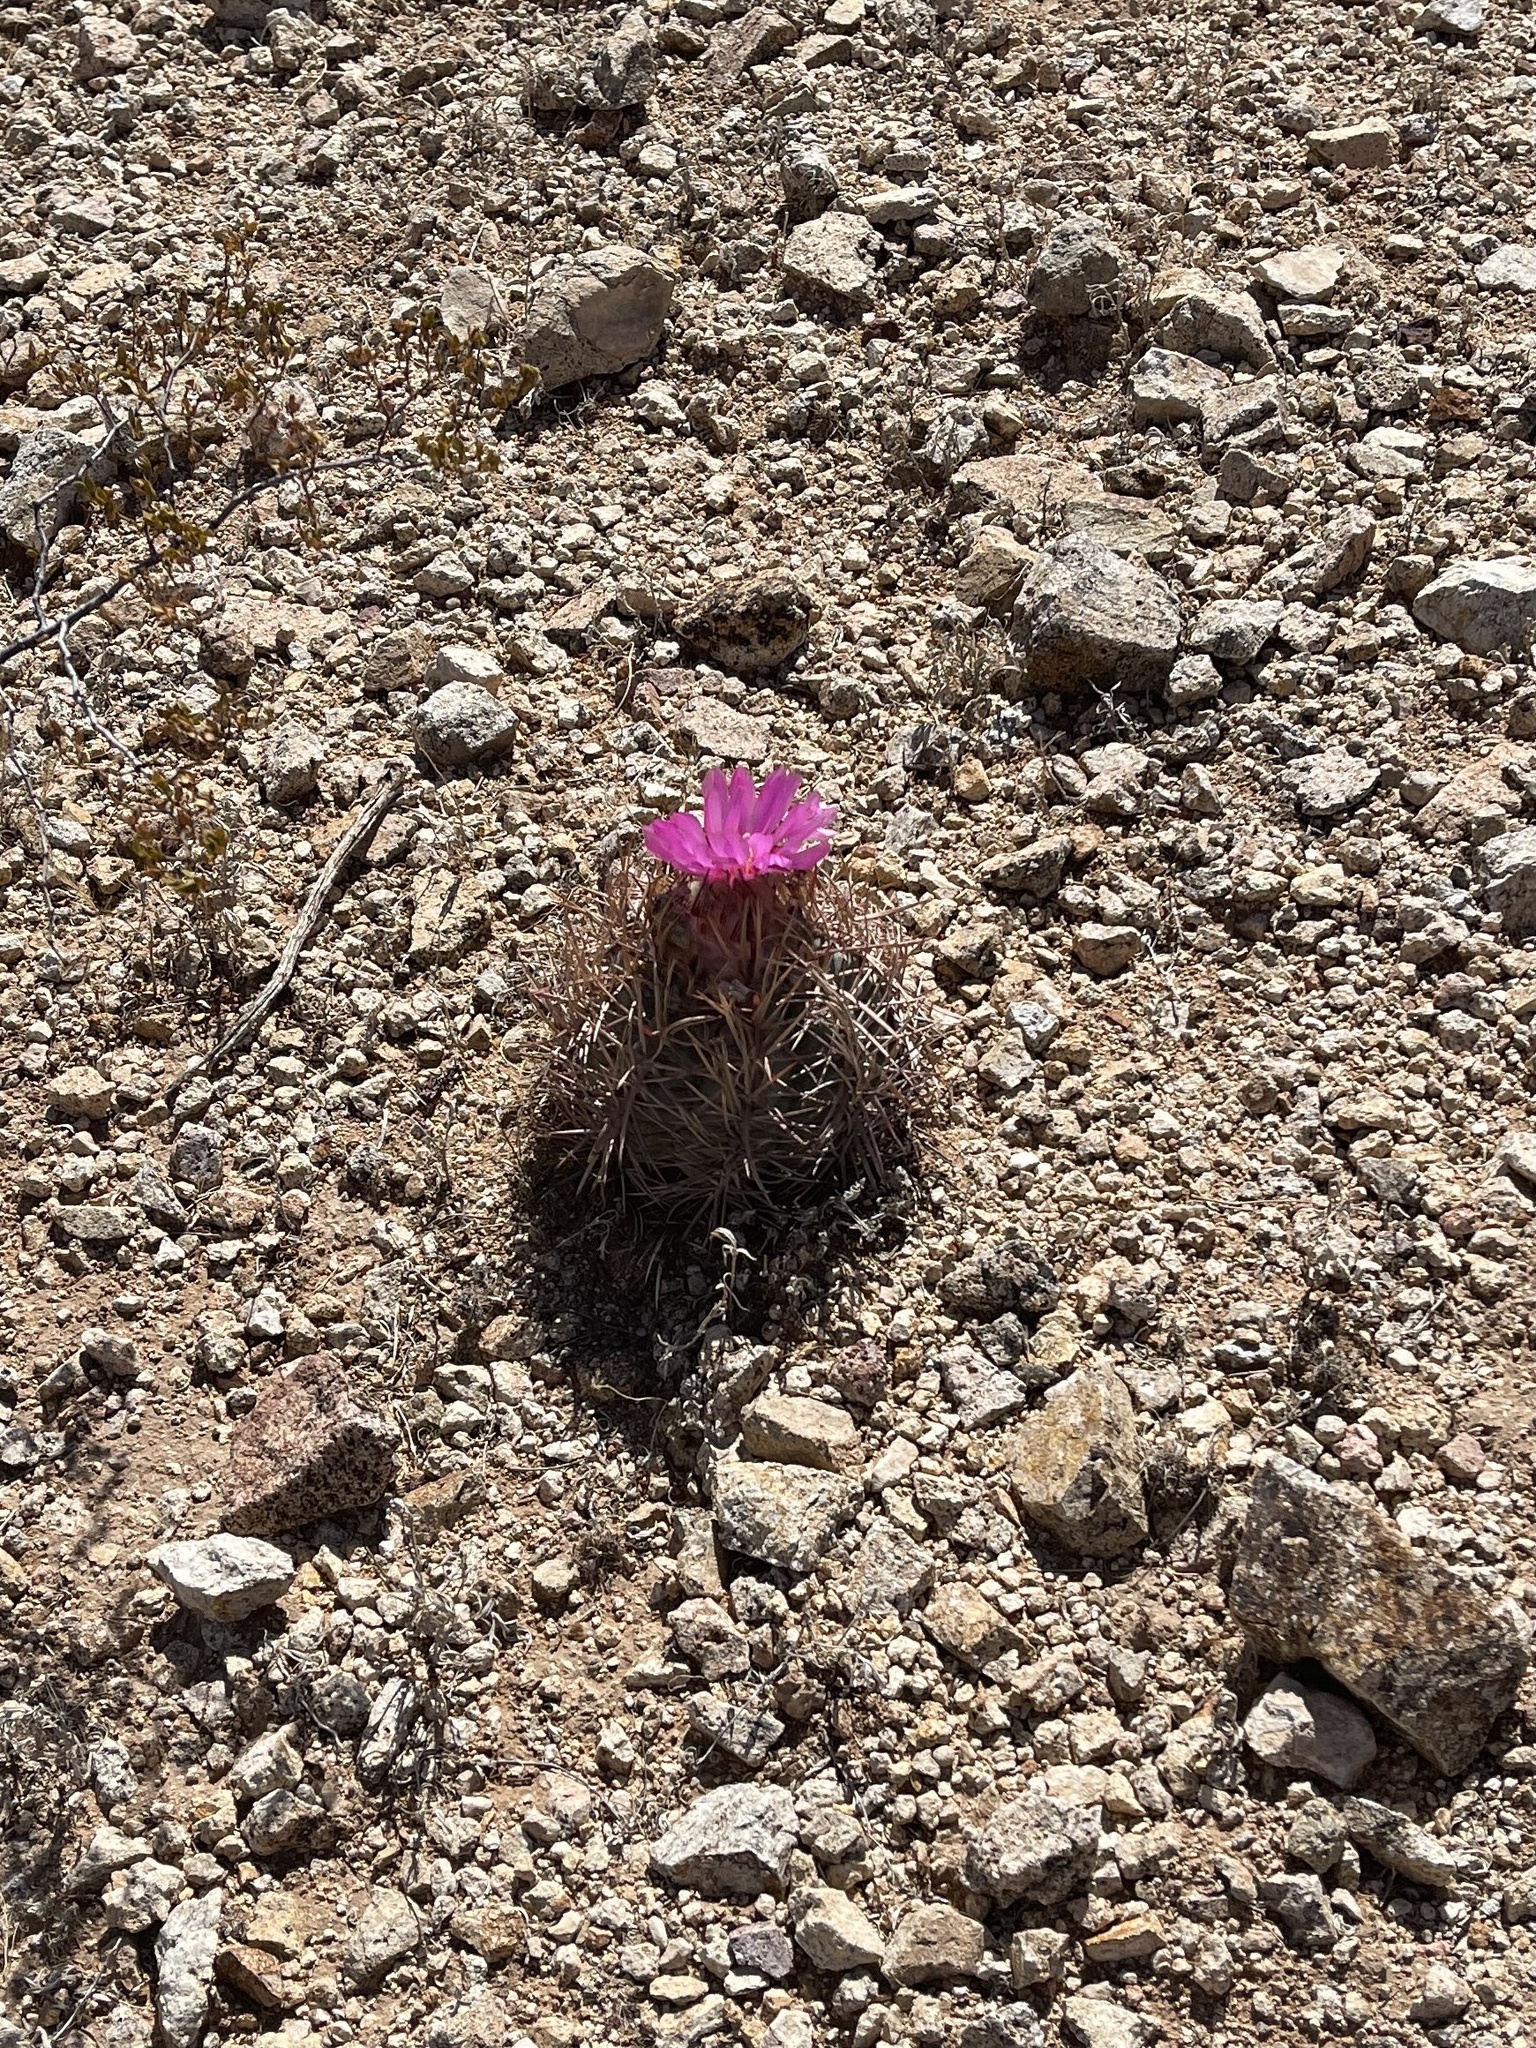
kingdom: Plantae
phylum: Tracheophyta
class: Magnoliopsida
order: Caryophyllales
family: Cactaceae
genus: Echinocactus
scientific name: Echinocactus horizonthalonius
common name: Devilshead
